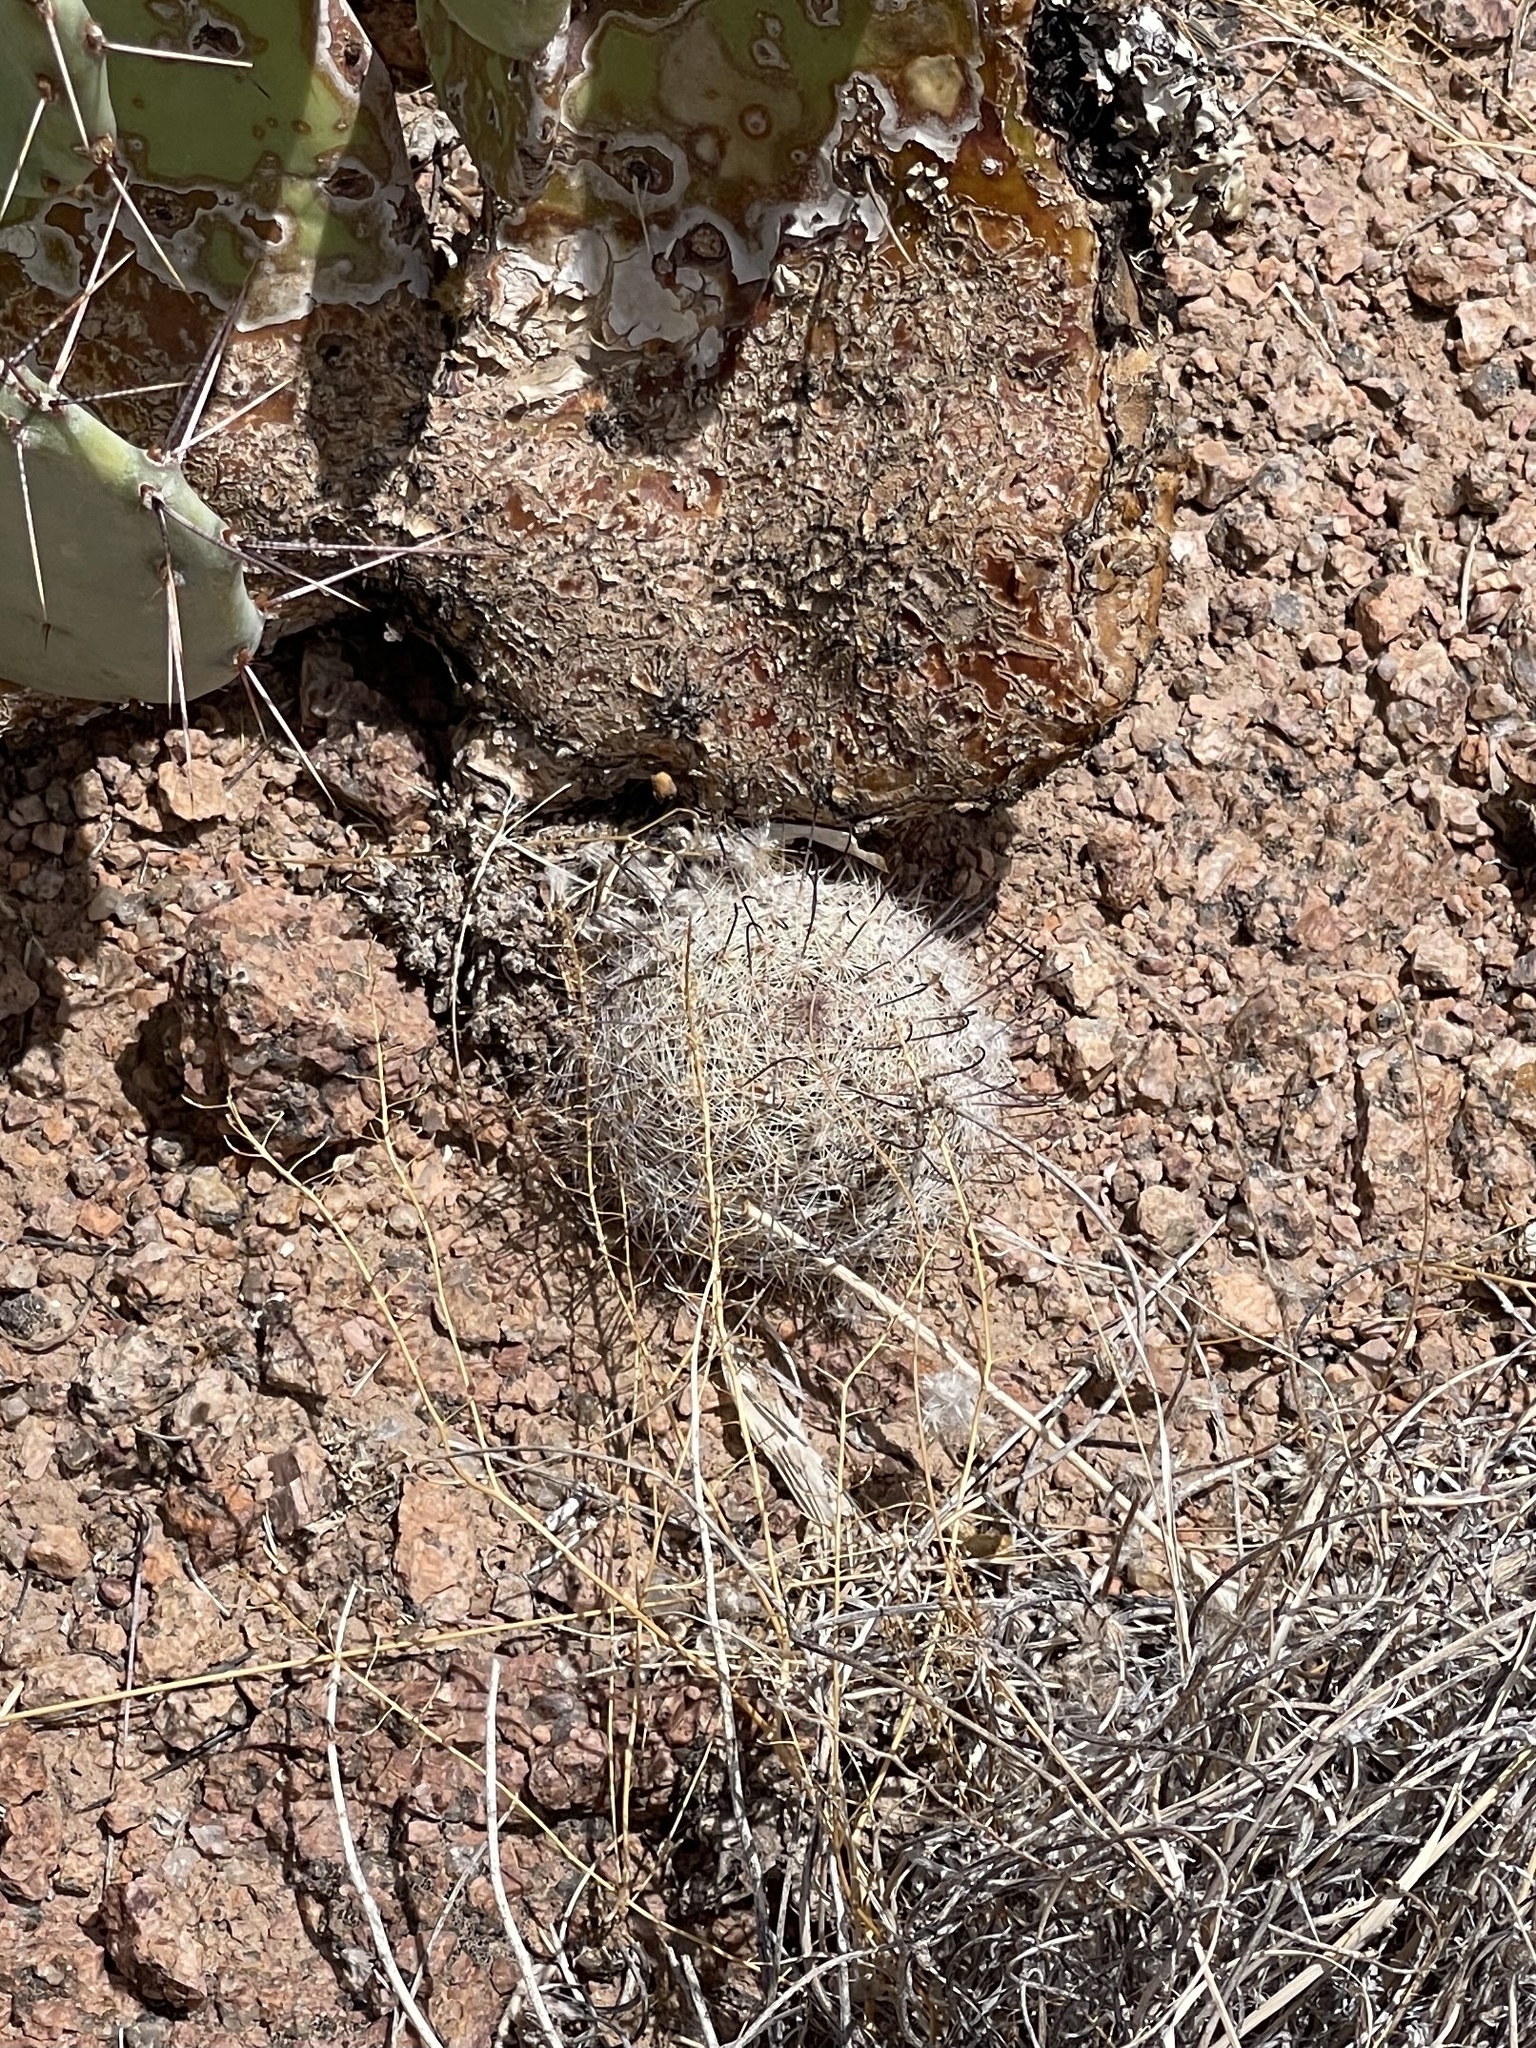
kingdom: Plantae
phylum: Tracheophyta
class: Magnoliopsida
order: Caryophyllales
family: Cactaceae
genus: Cochemiea
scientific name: Cochemiea grahamii
